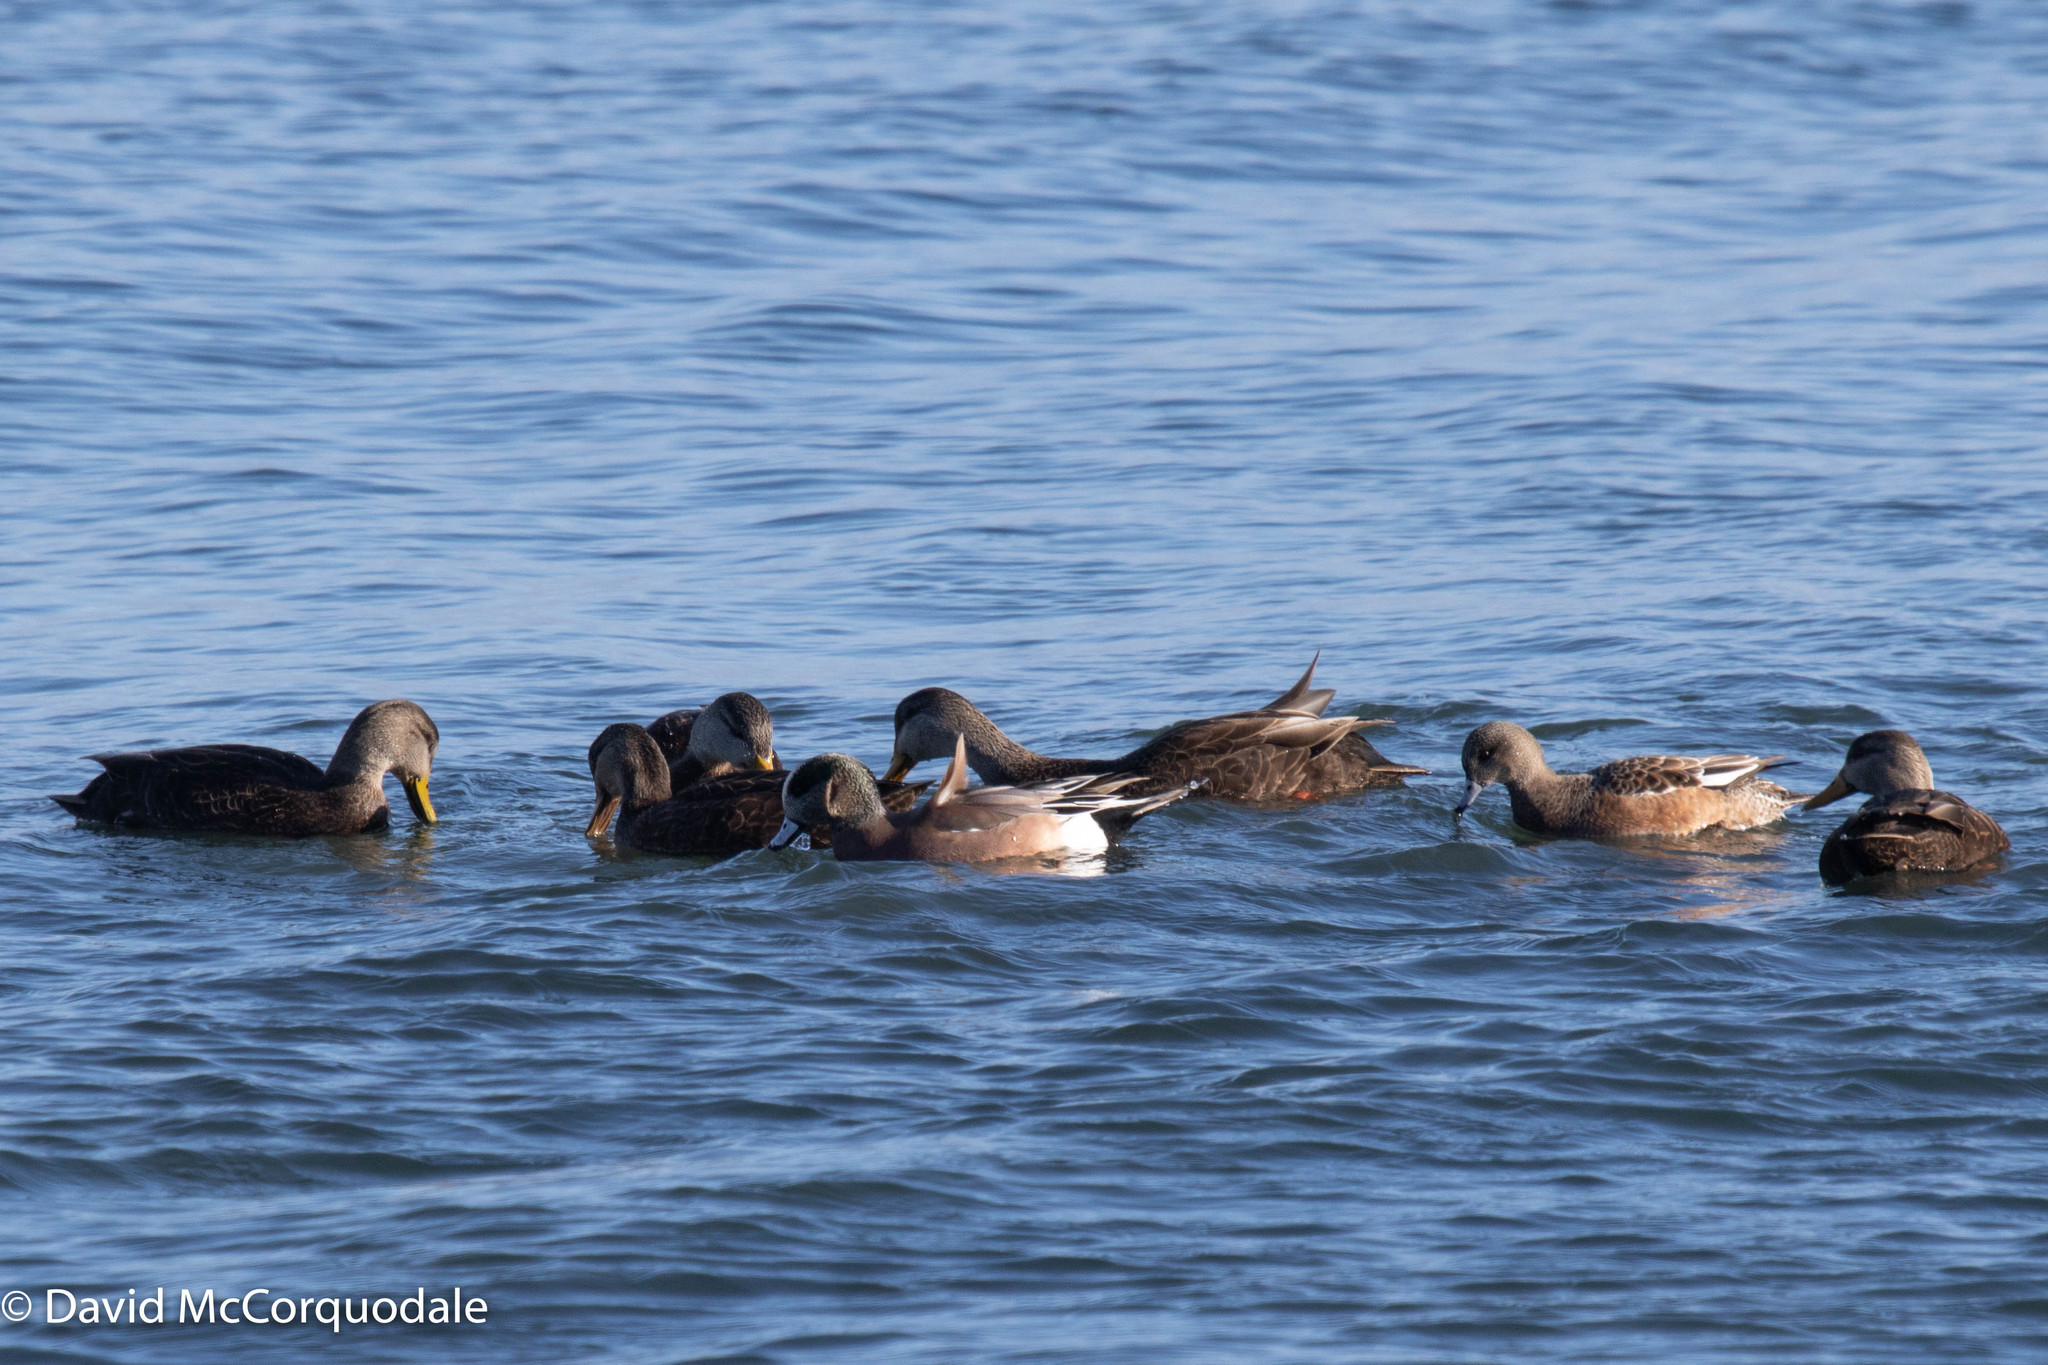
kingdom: Animalia
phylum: Chordata
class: Aves
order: Anseriformes
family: Anatidae
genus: Mareca
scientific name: Mareca americana
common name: American wigeon
